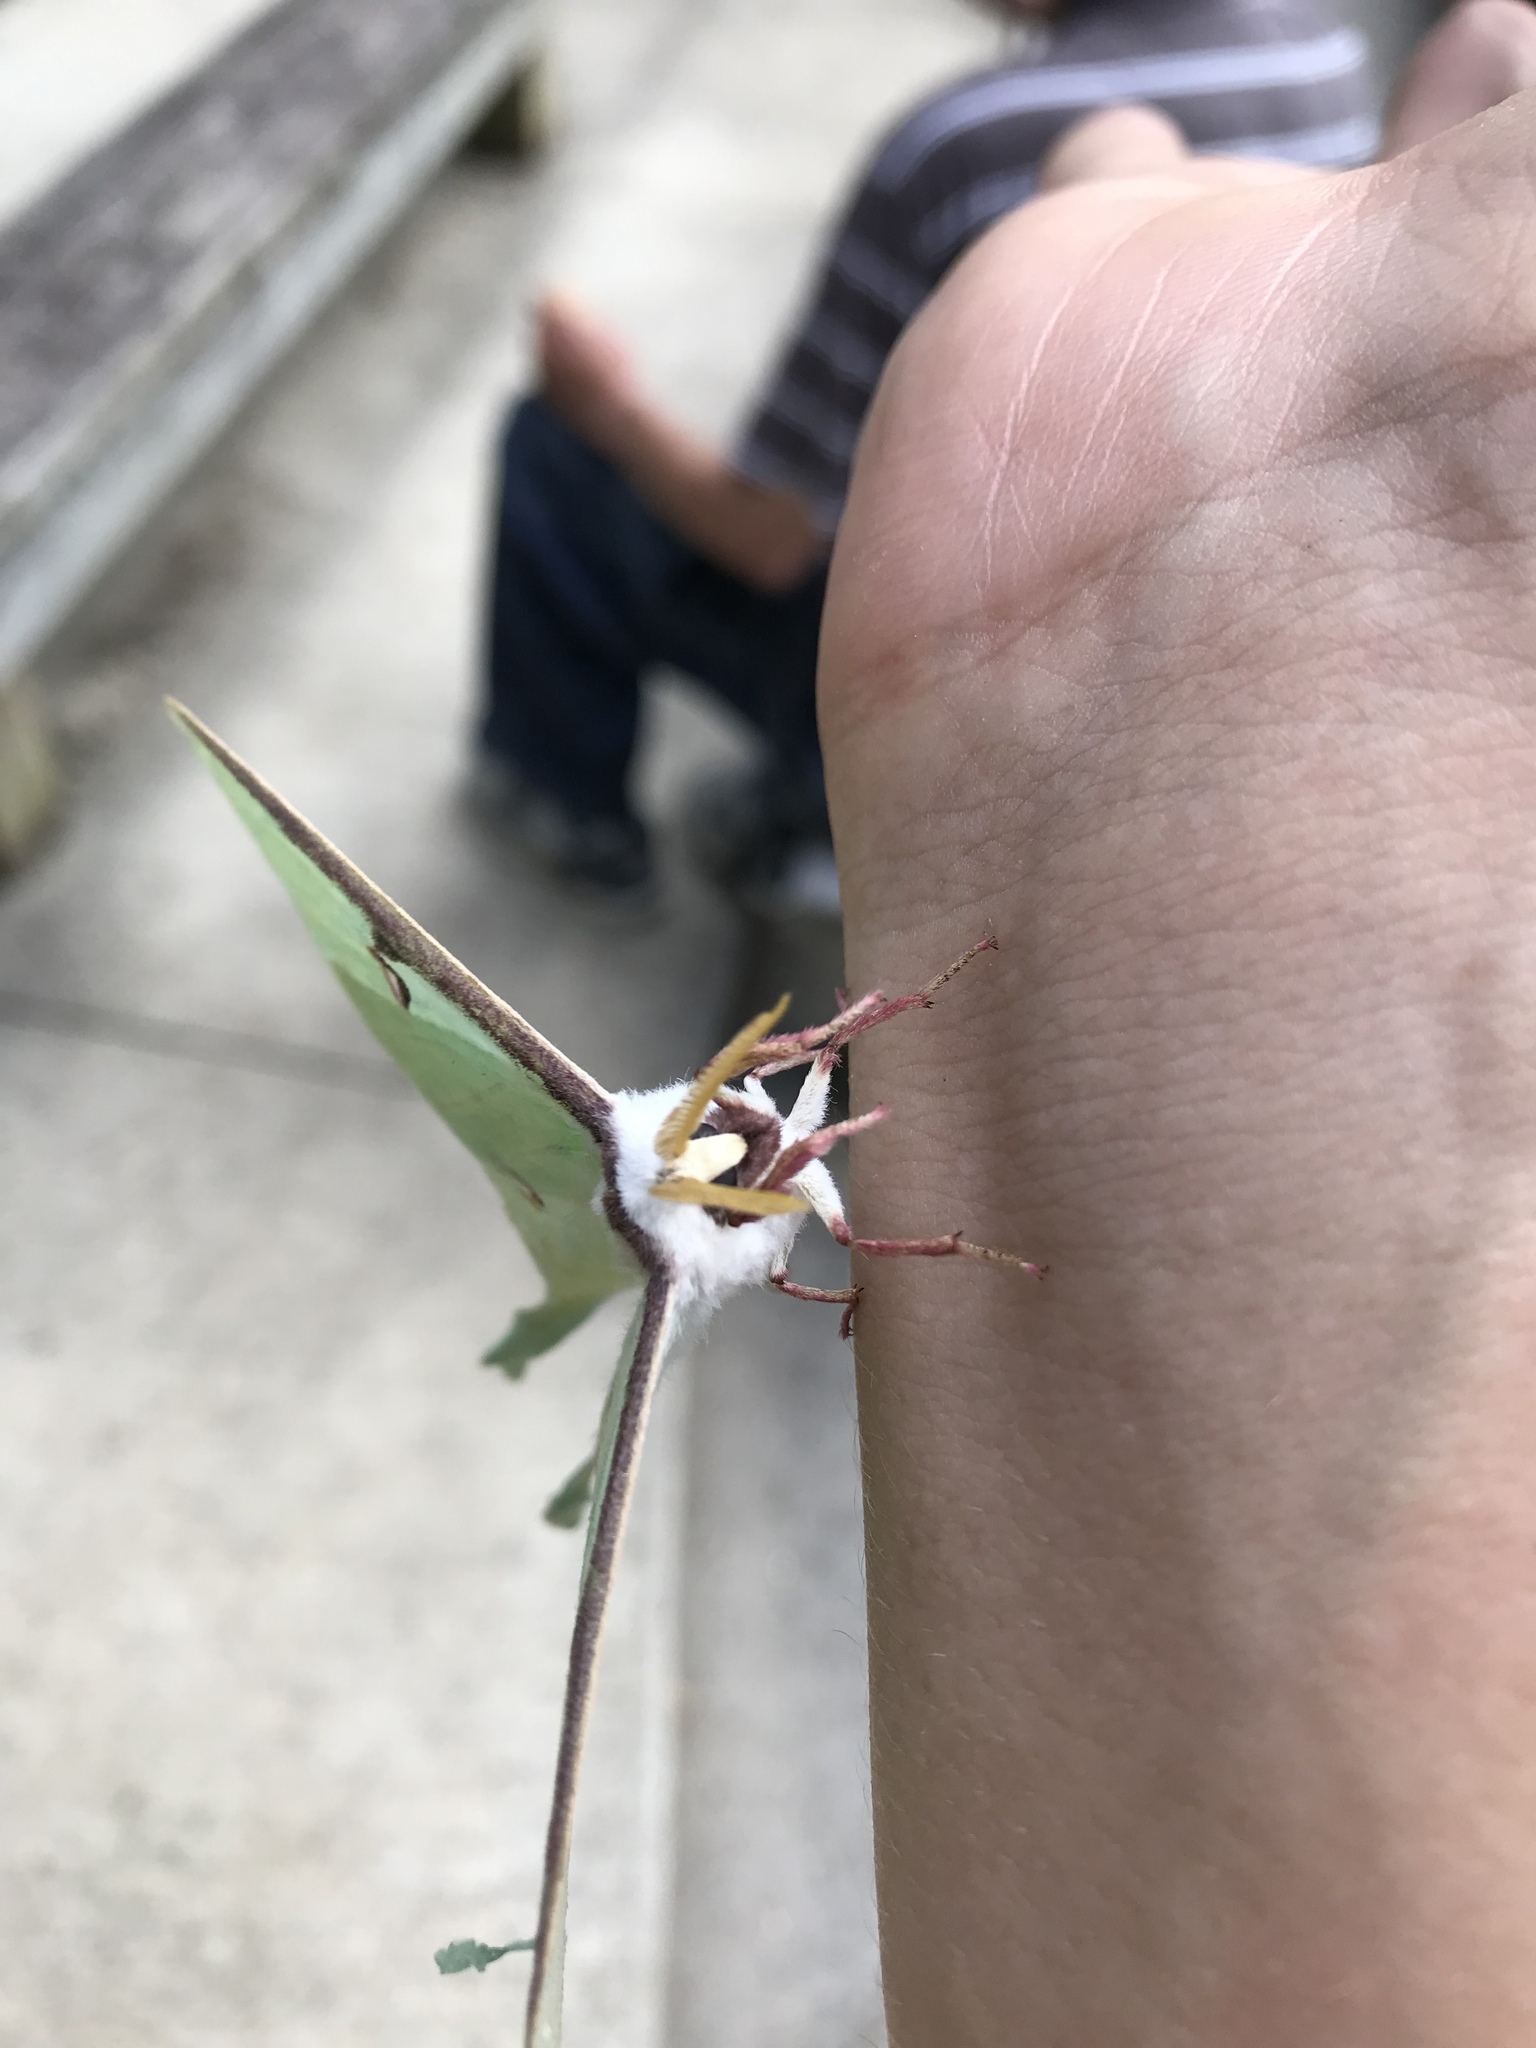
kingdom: Animalia
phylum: Arthropoda
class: Insecta
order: Lepidoptera
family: Saturniidae
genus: Actias
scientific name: Actias luna
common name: Luna moth
